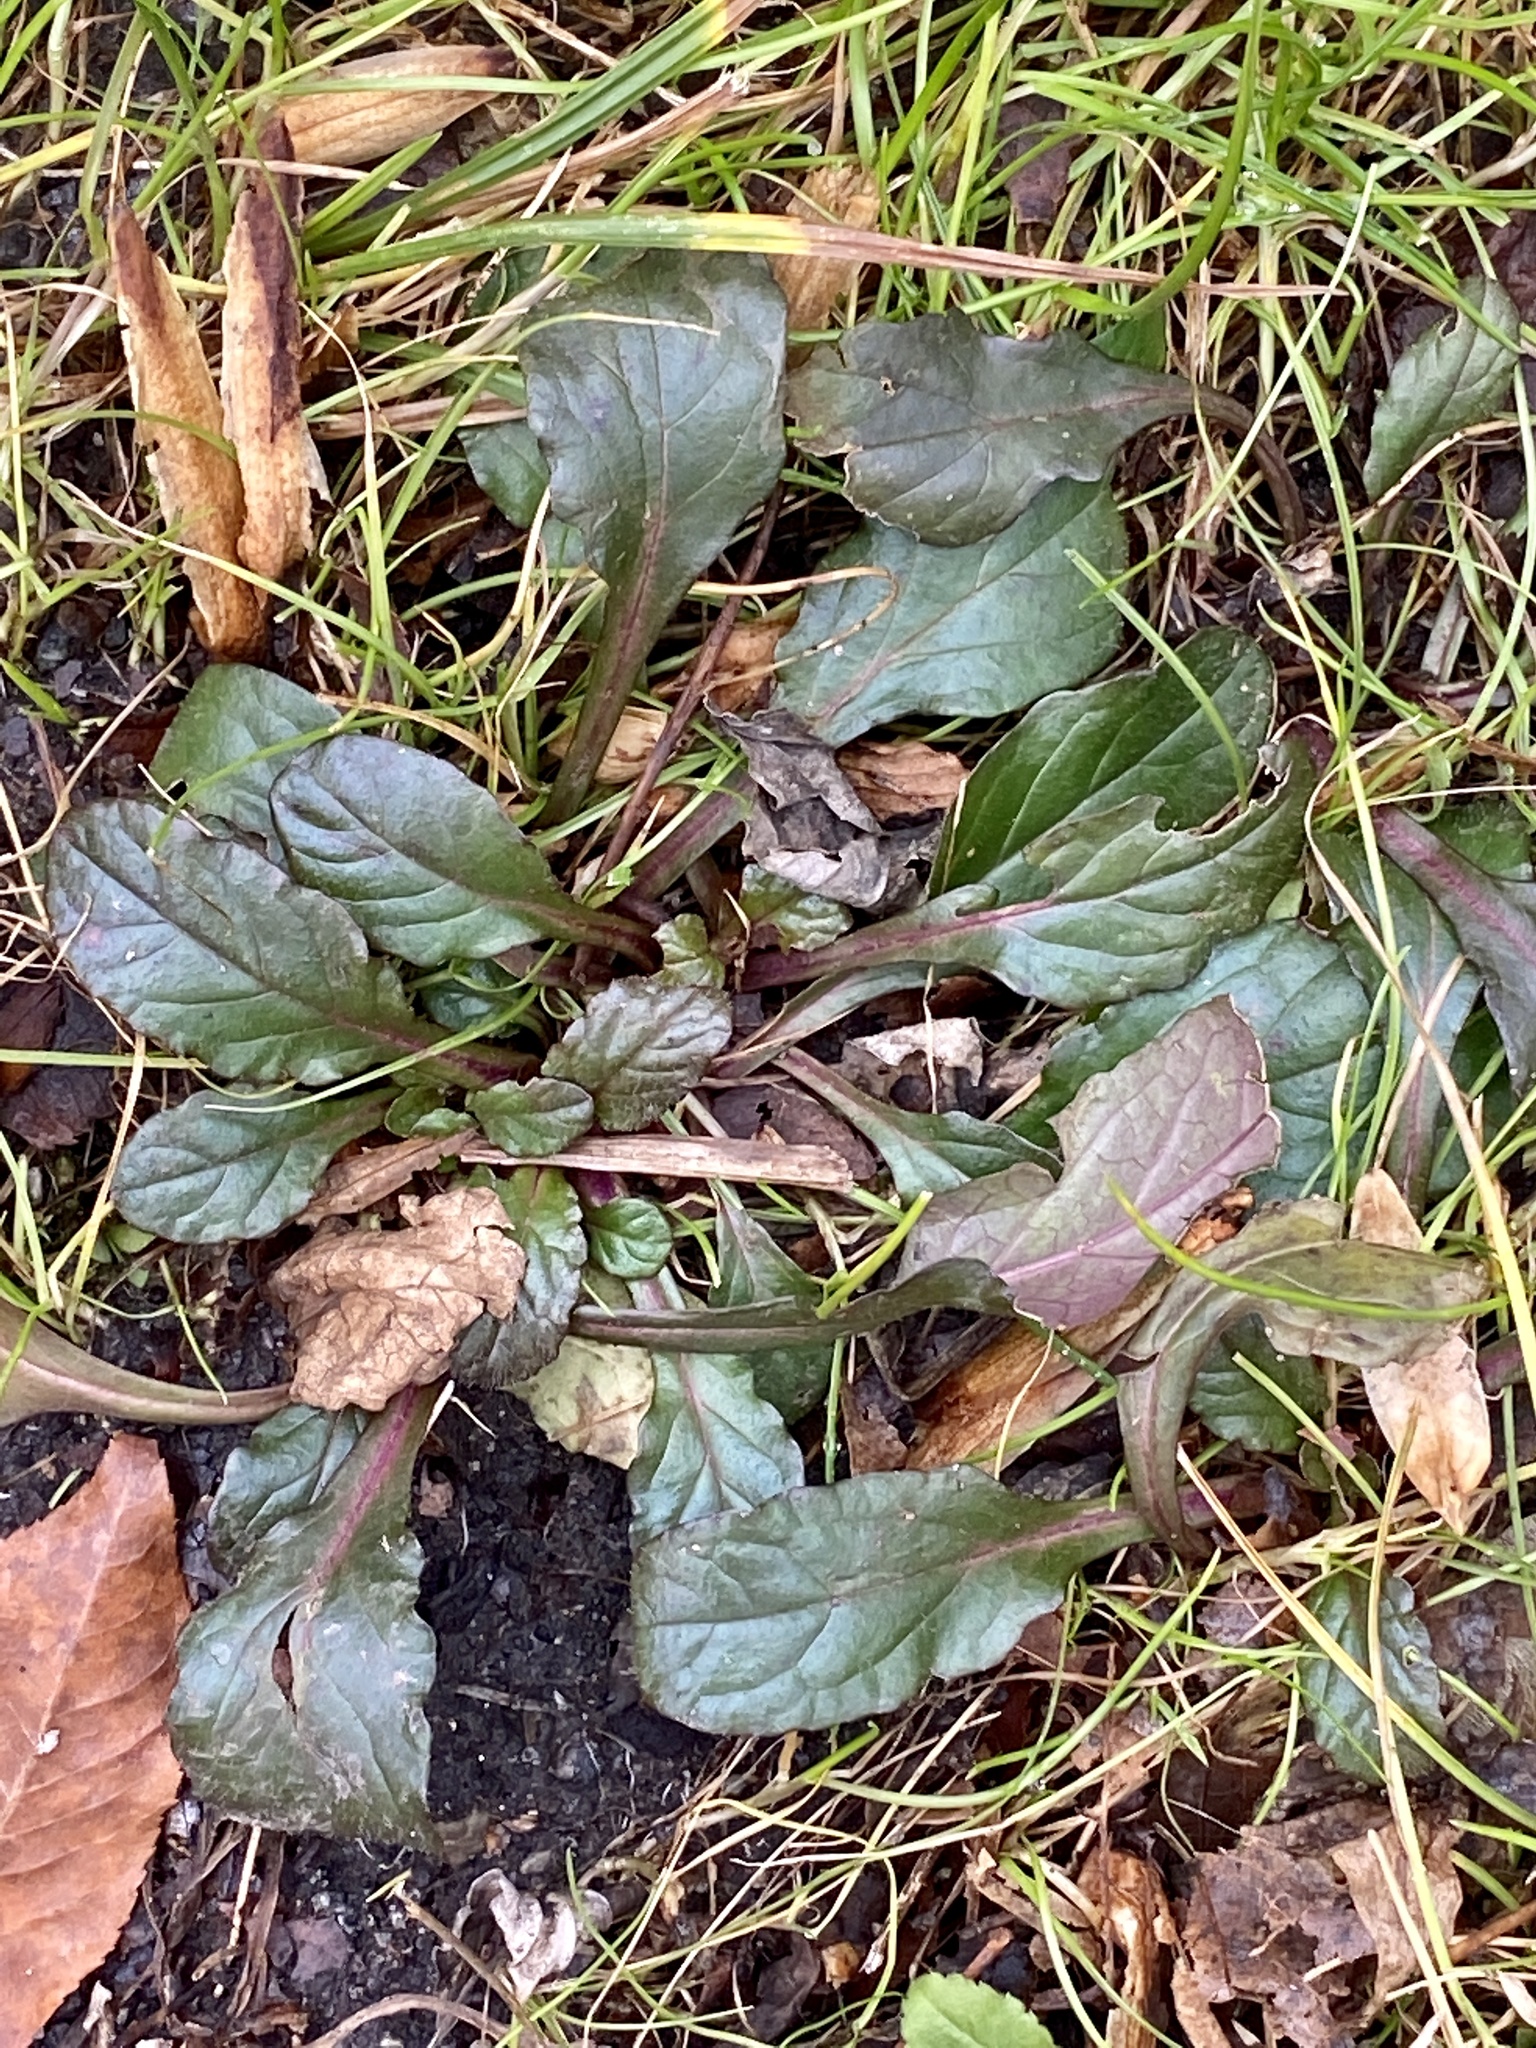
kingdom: Plantae
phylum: Tracheophyta
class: Magnoliopsida
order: Lamiales
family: Lamiaceae
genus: Ajuga
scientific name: Ajuga reptans
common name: Bugle
